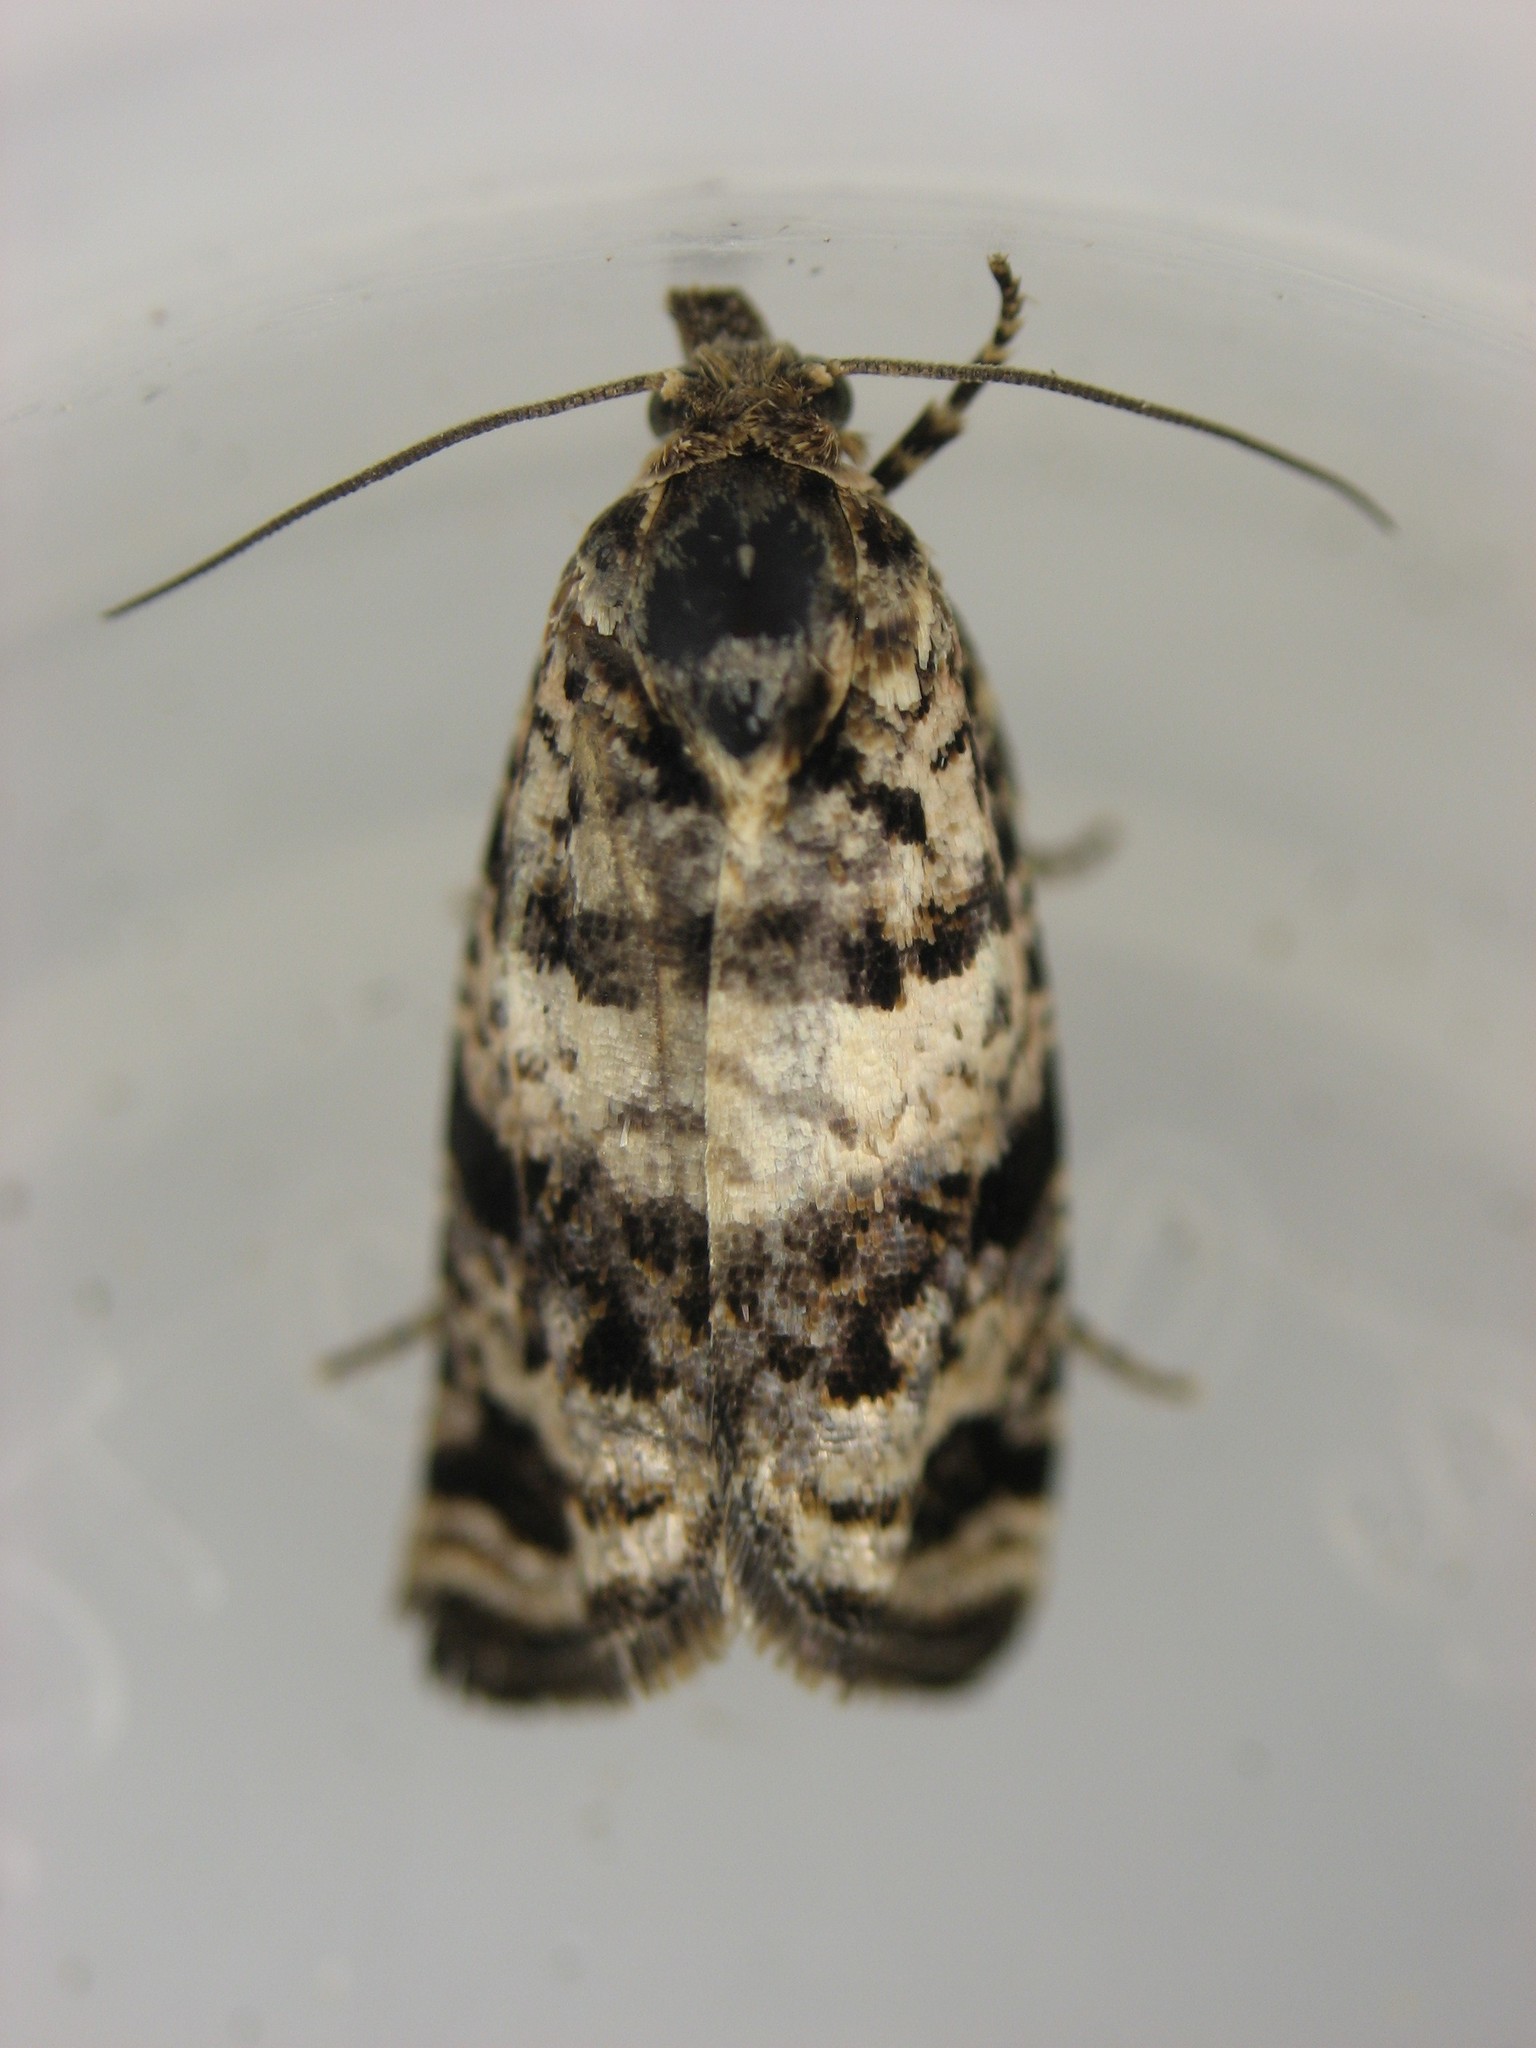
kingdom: Animalia
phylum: Arthropoda
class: Insecta
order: Lepidoptera
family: Tortricidae
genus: Epiblema
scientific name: Epiblema iowana
